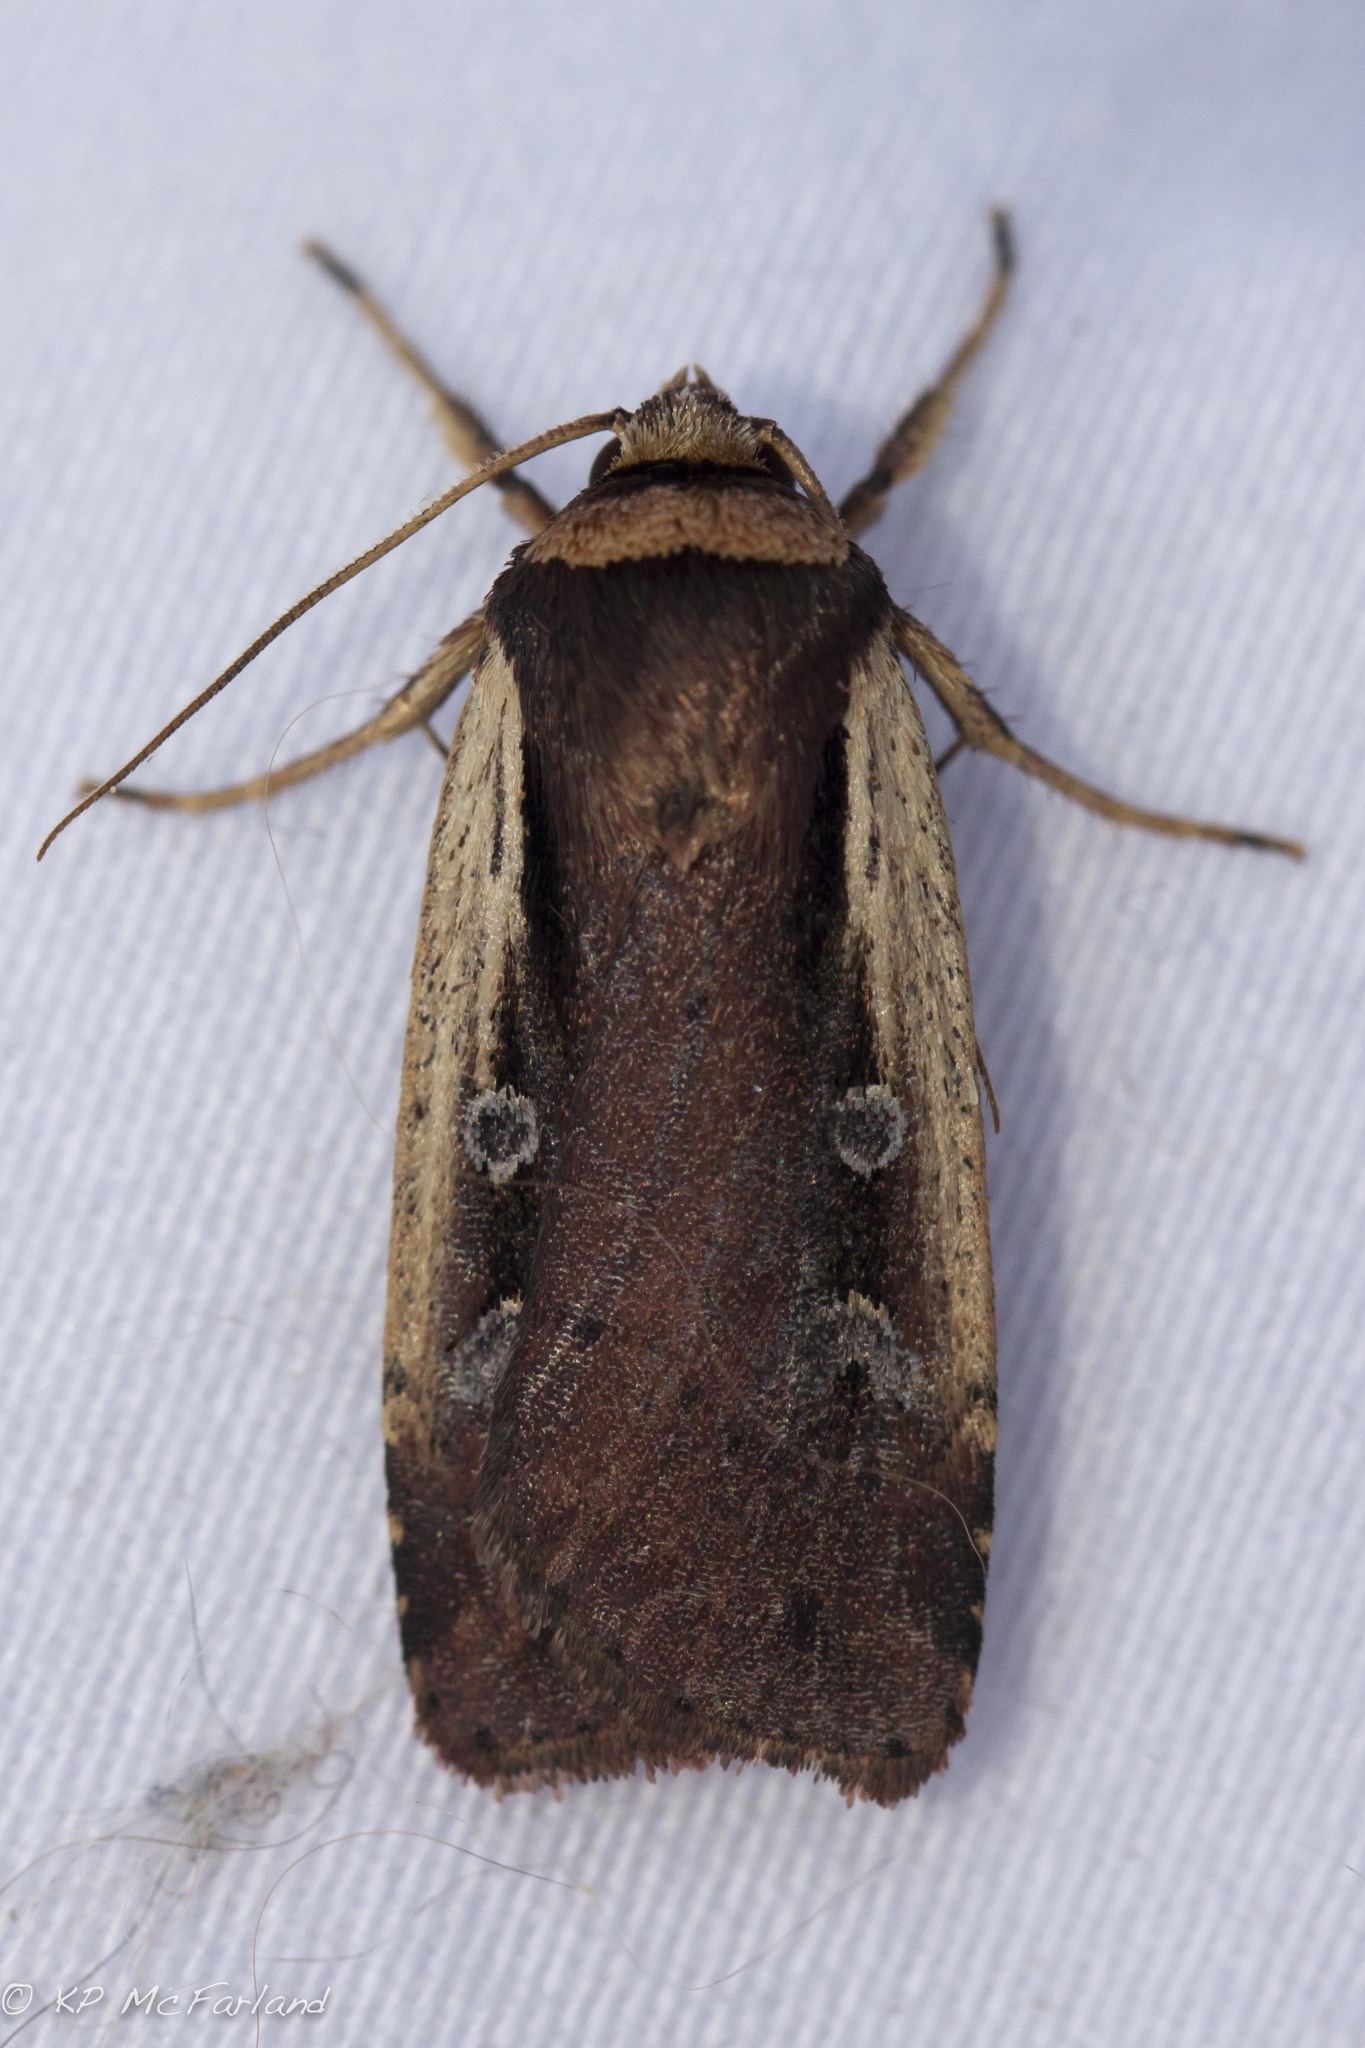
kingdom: Animalia
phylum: Arthropoda
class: Insecta
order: Lepidoptera
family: Noctuidae
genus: Ochropleura
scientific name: Ochropleura implecta
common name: Flame-shouldered dart
